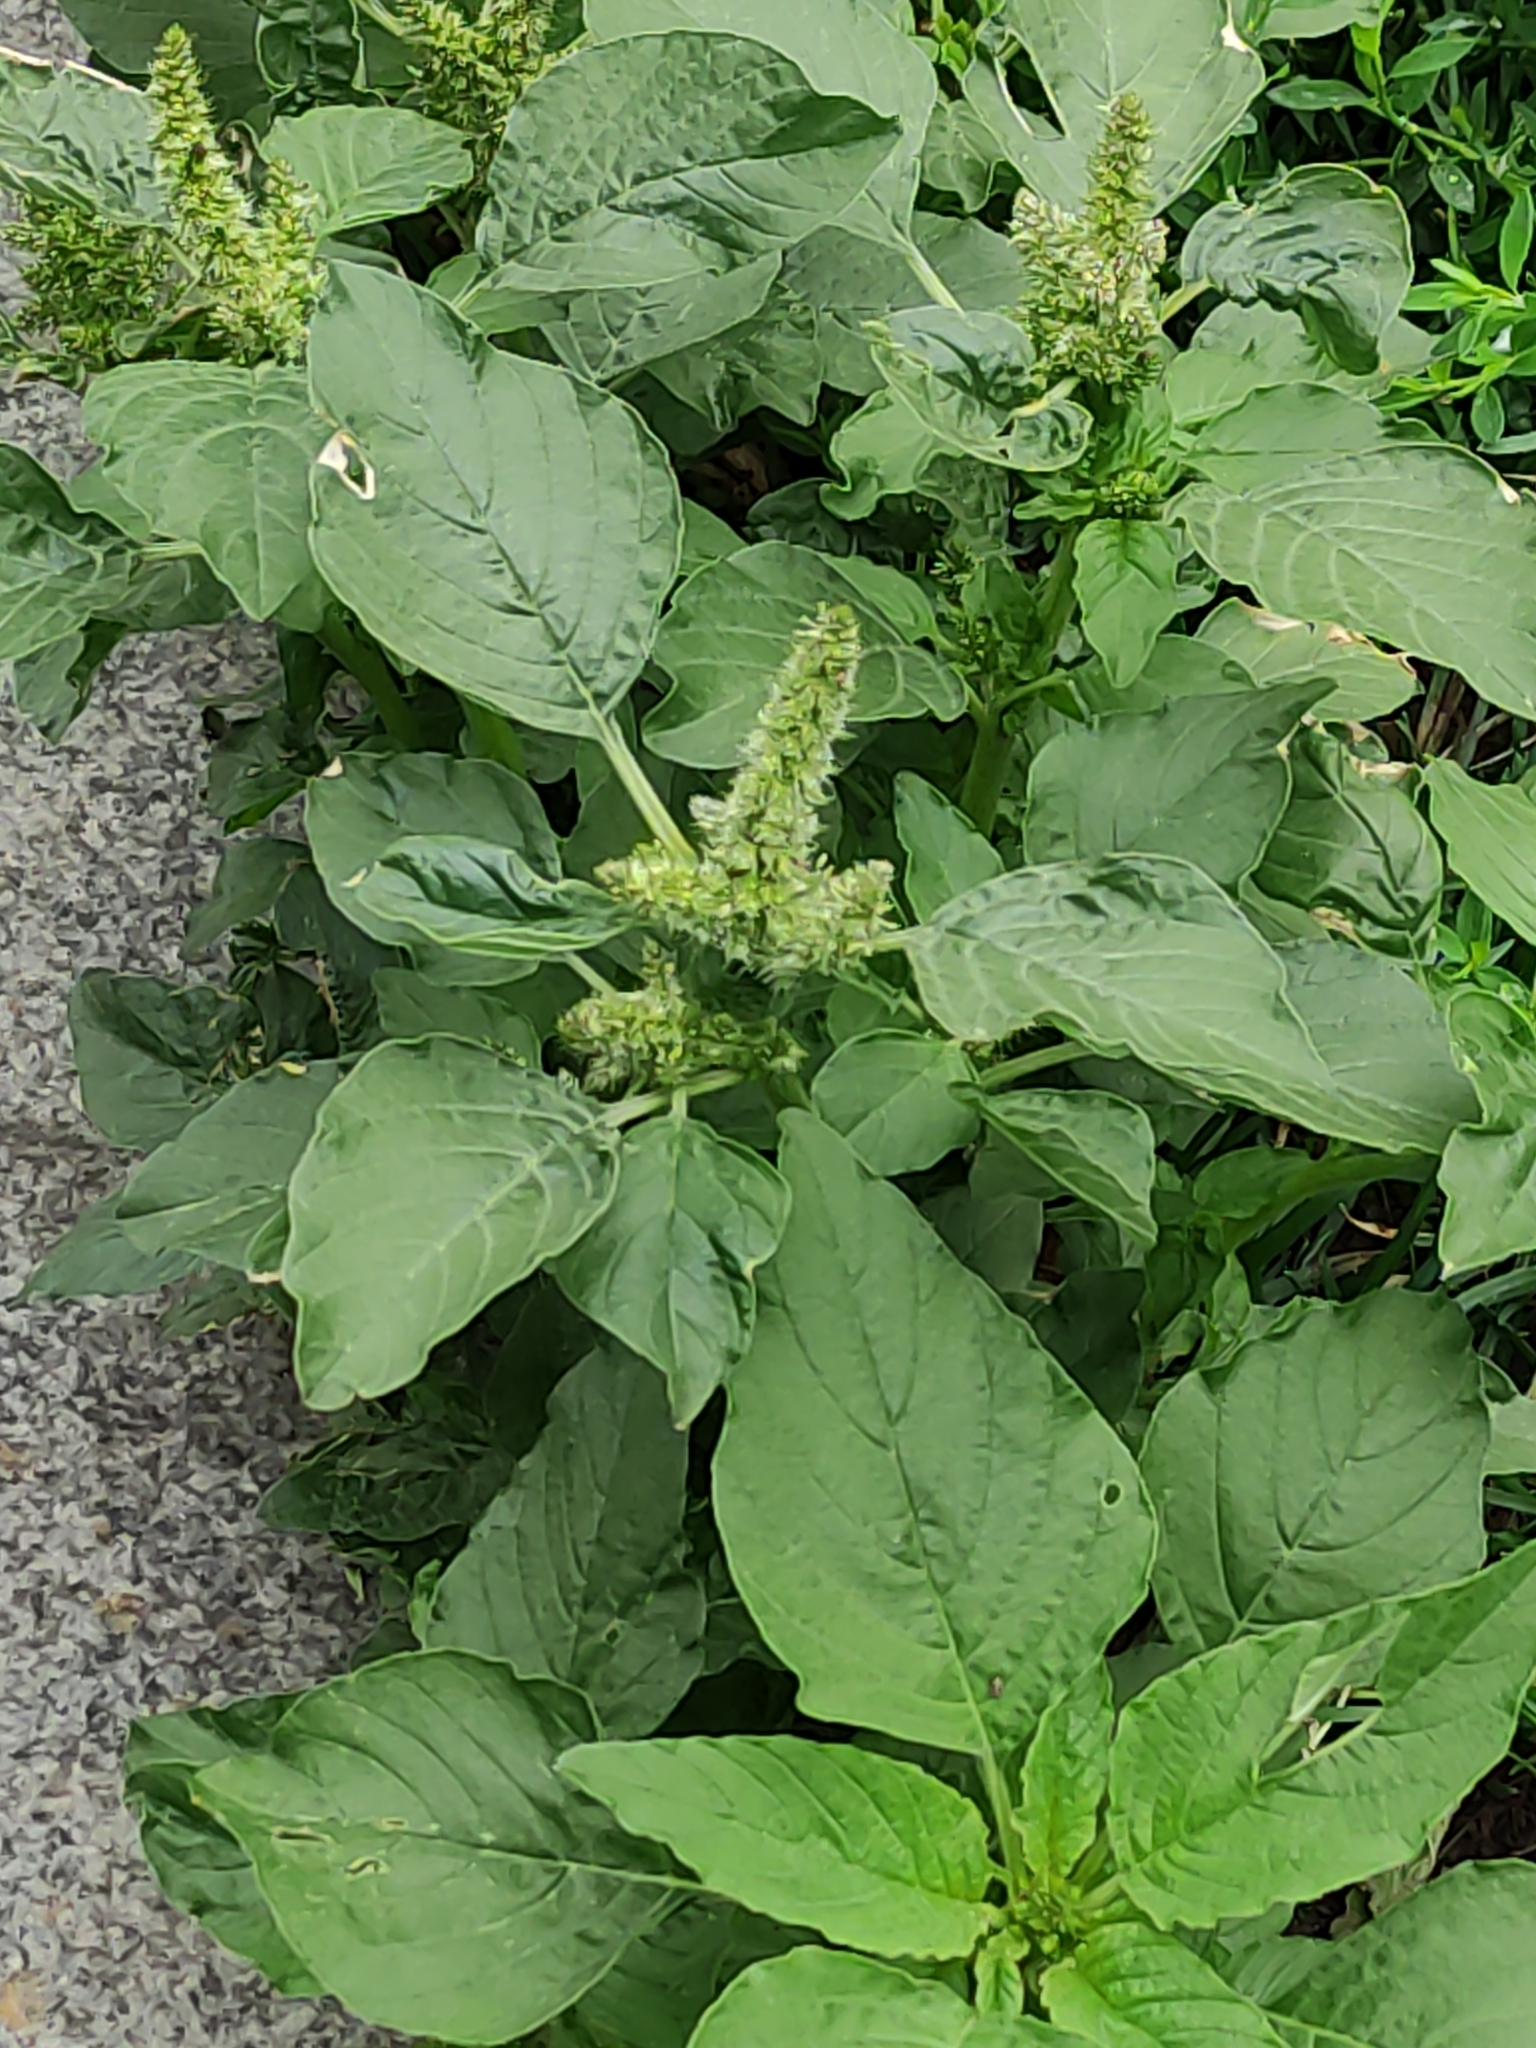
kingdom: Plantae
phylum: Tracheophyta
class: Magnoliopsida
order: Caryophyllales
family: Amaranthaceae
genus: Amaranthus
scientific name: Amaranthus retroflexus
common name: Redroot amaranth
